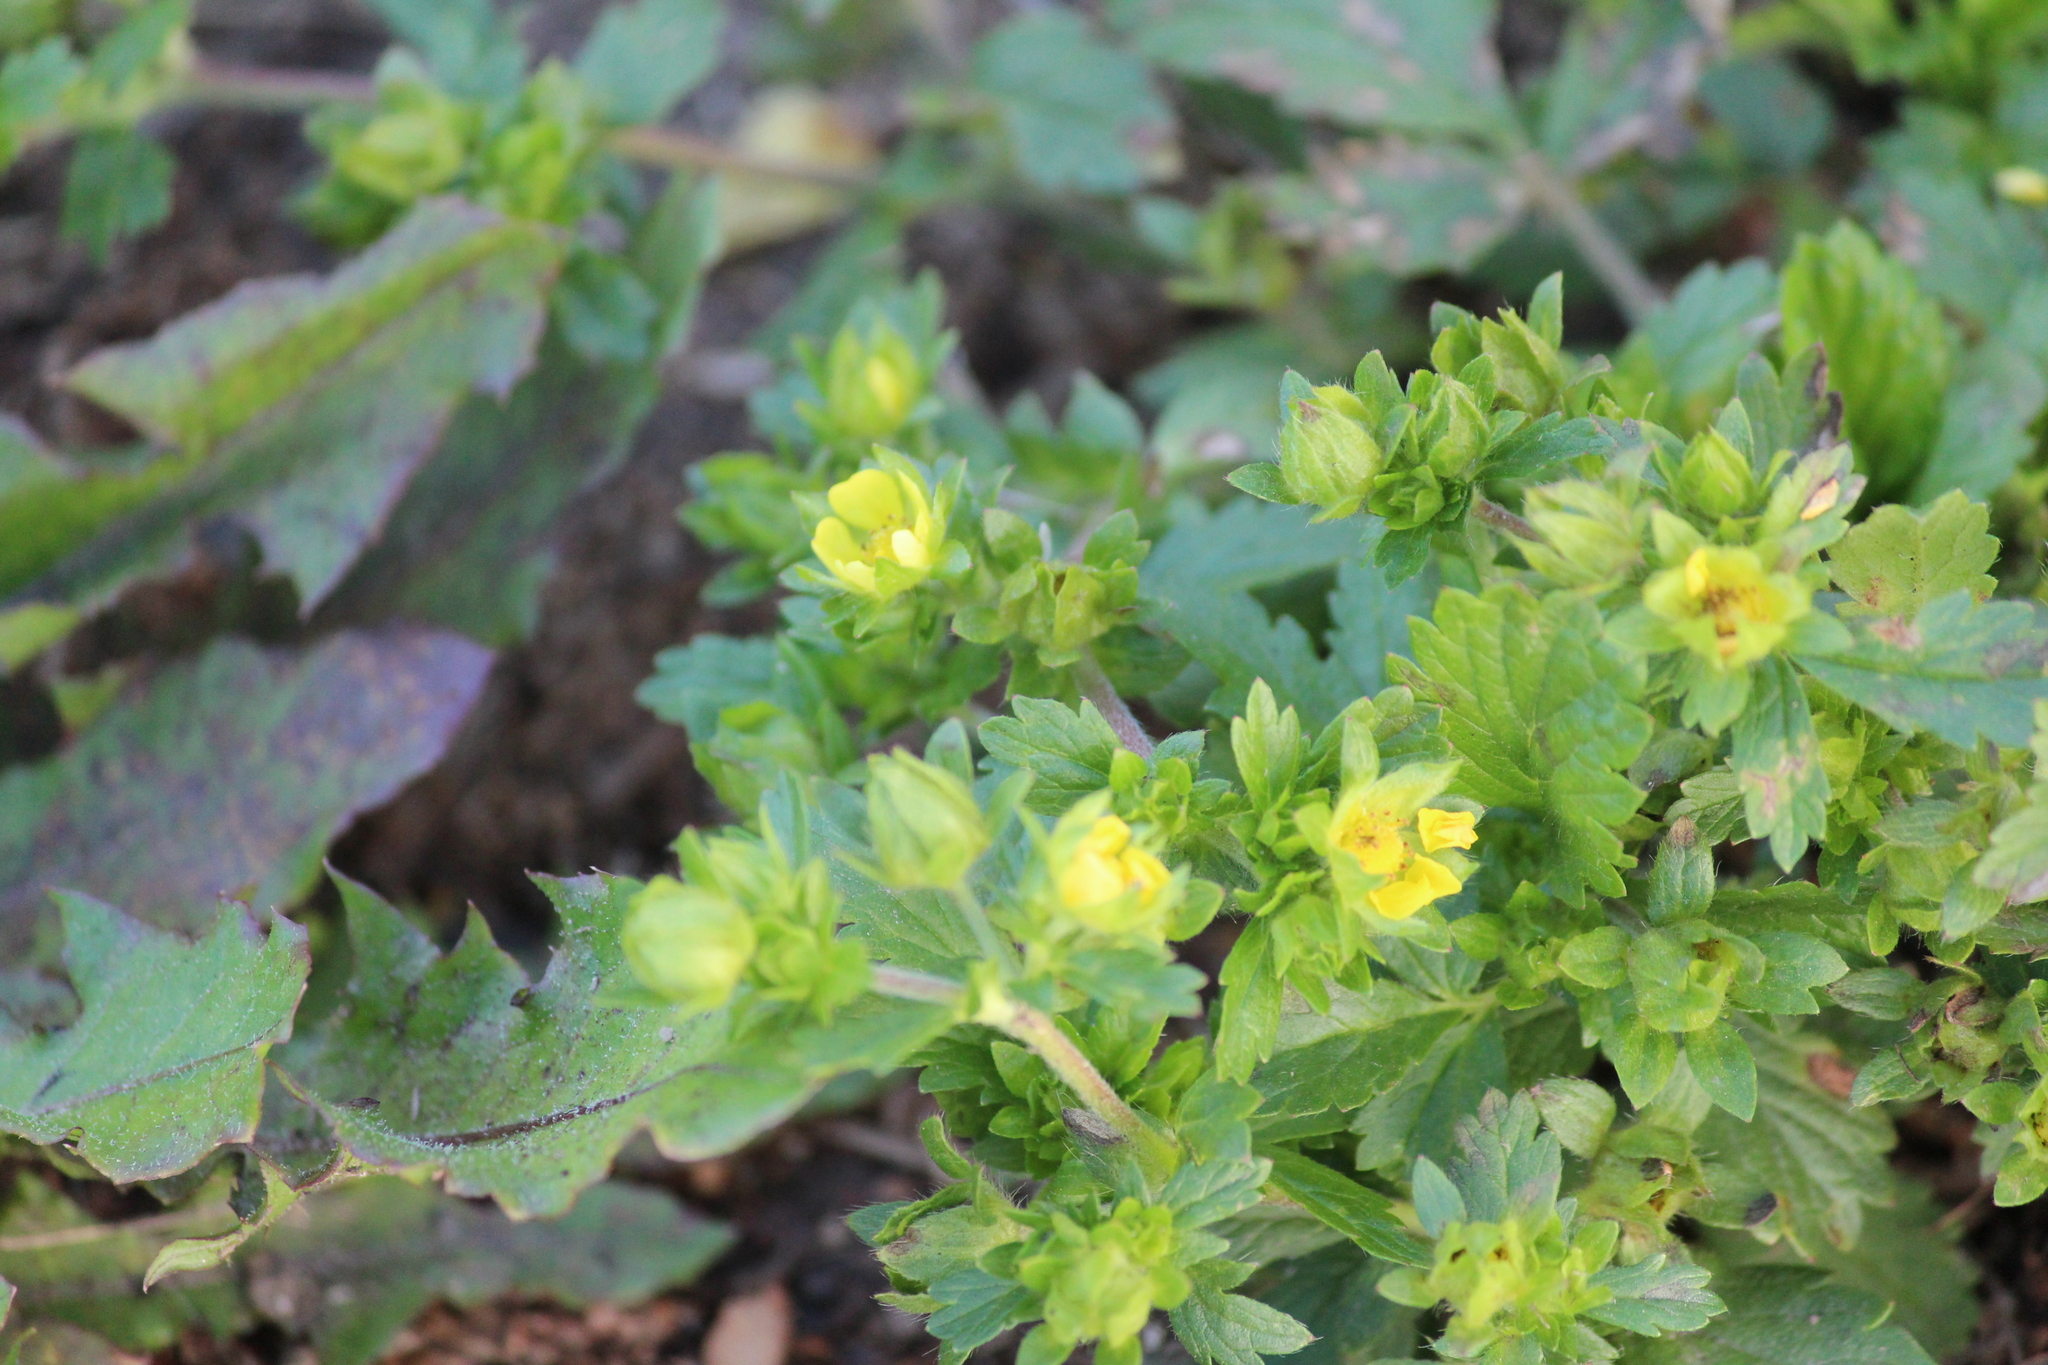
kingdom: Plantae
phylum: Tracheophyta
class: Magnoliopsida
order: Rosales
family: Rosaceae
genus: Potentilla
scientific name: Potentilla norvegica
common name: Ternate-leaved cinquefoil
